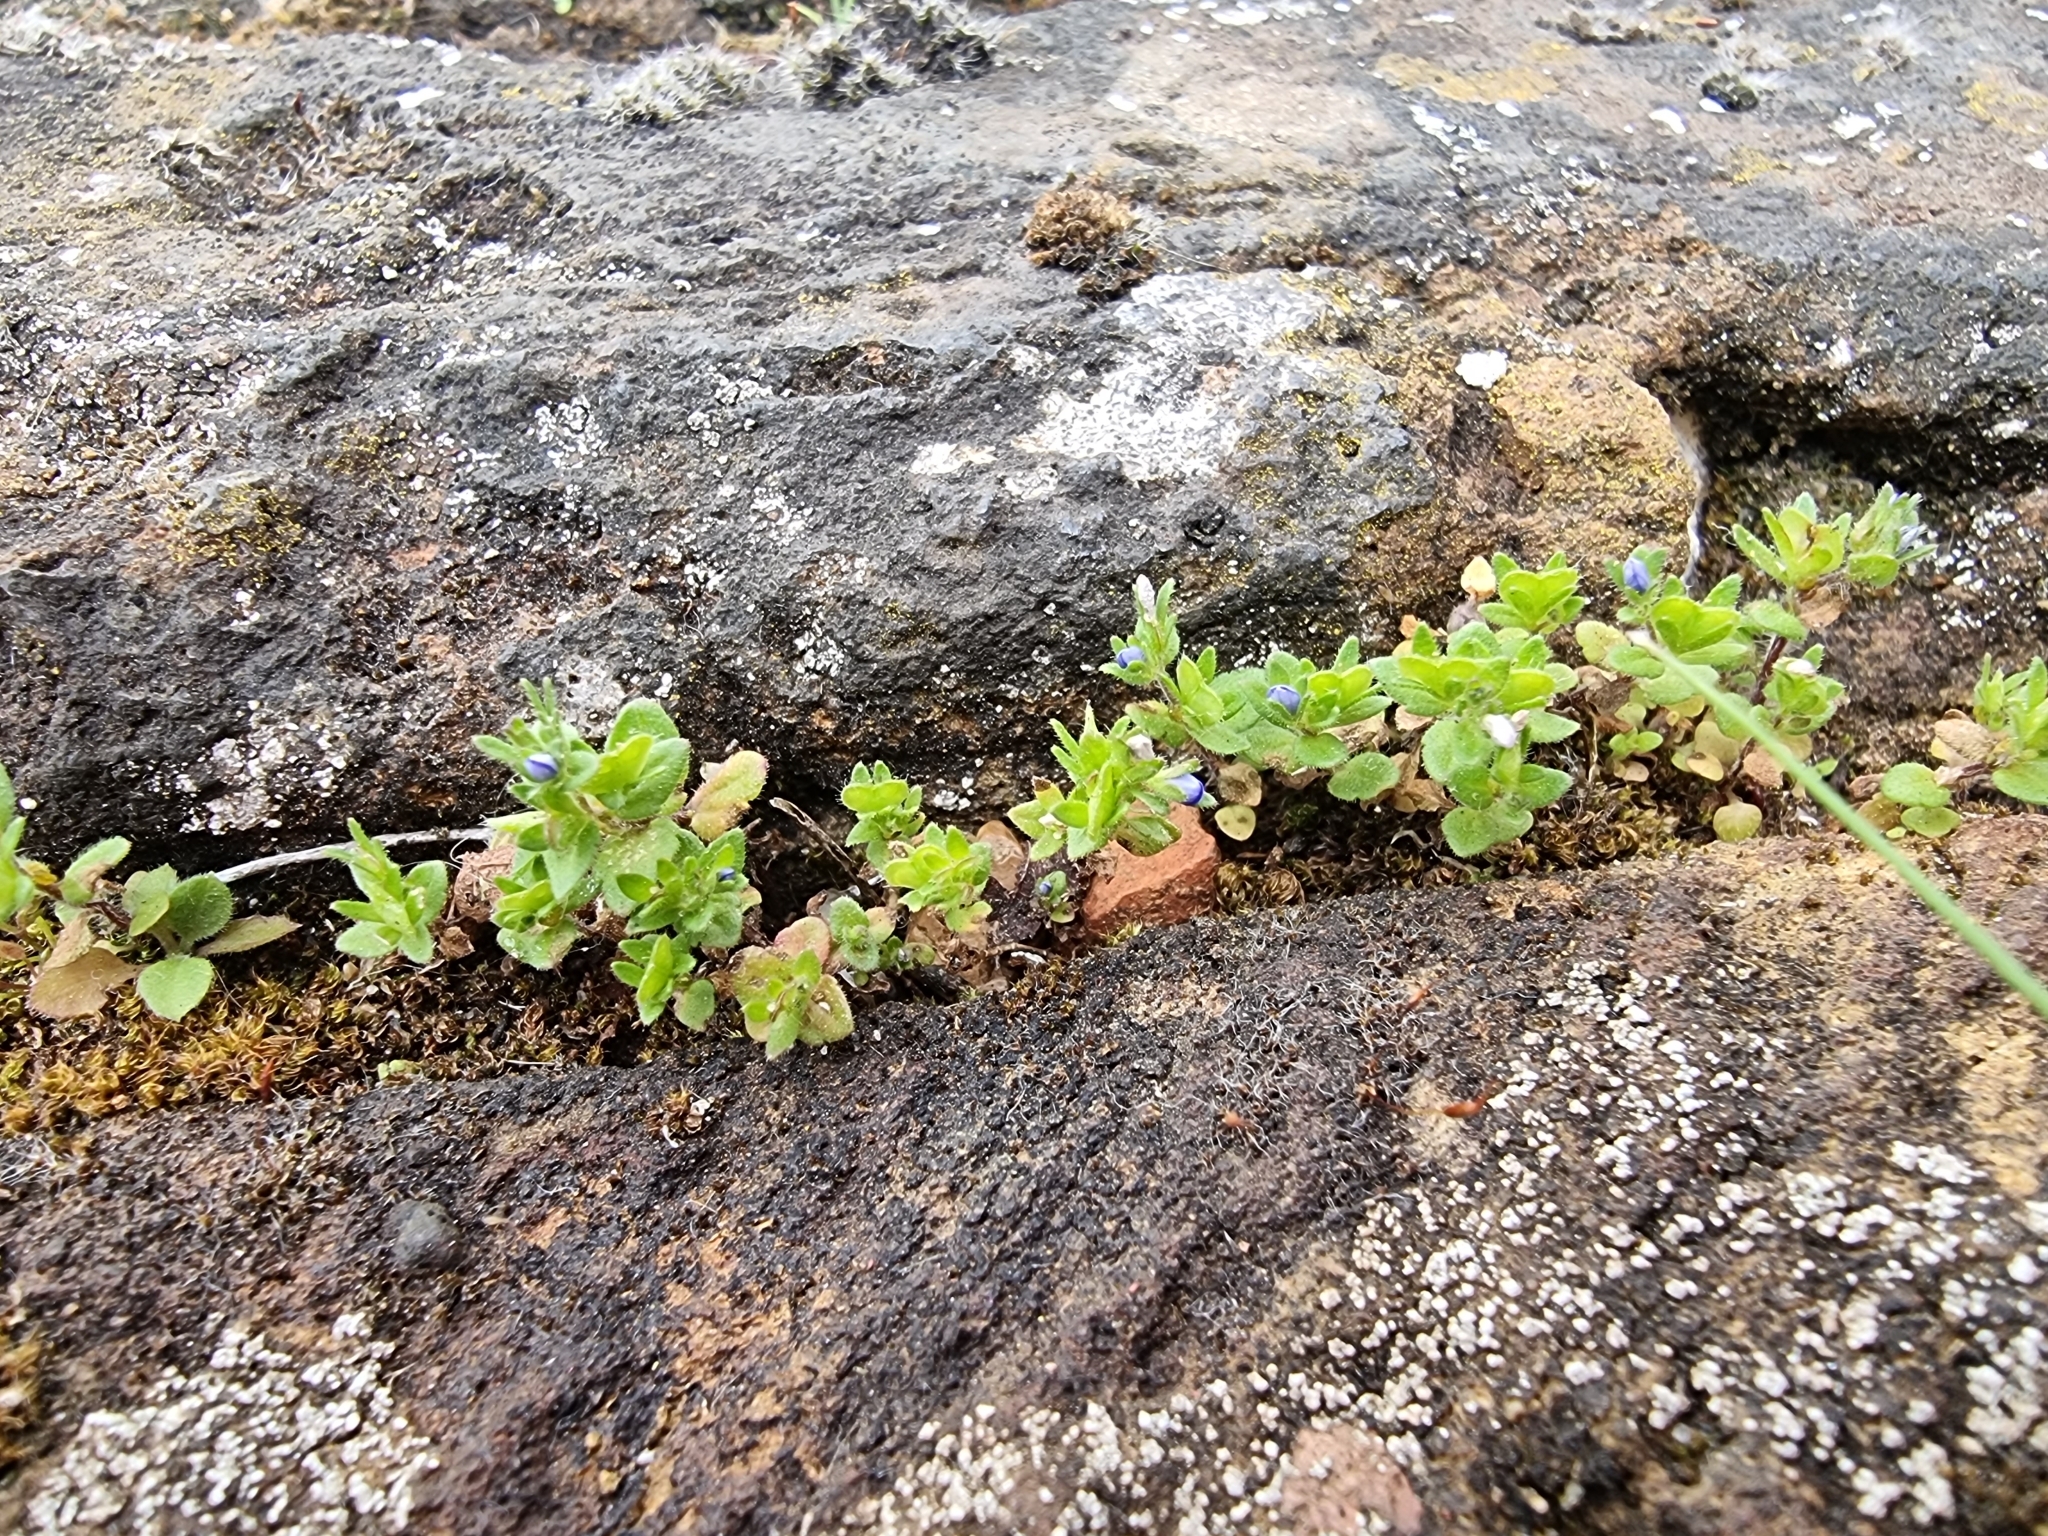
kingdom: Plantae
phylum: Tracheophyta
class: Magnoliopsida
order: Lamiales
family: Plantaginaceae
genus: Veronica
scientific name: Veronica arvensis
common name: Corn speedwell
